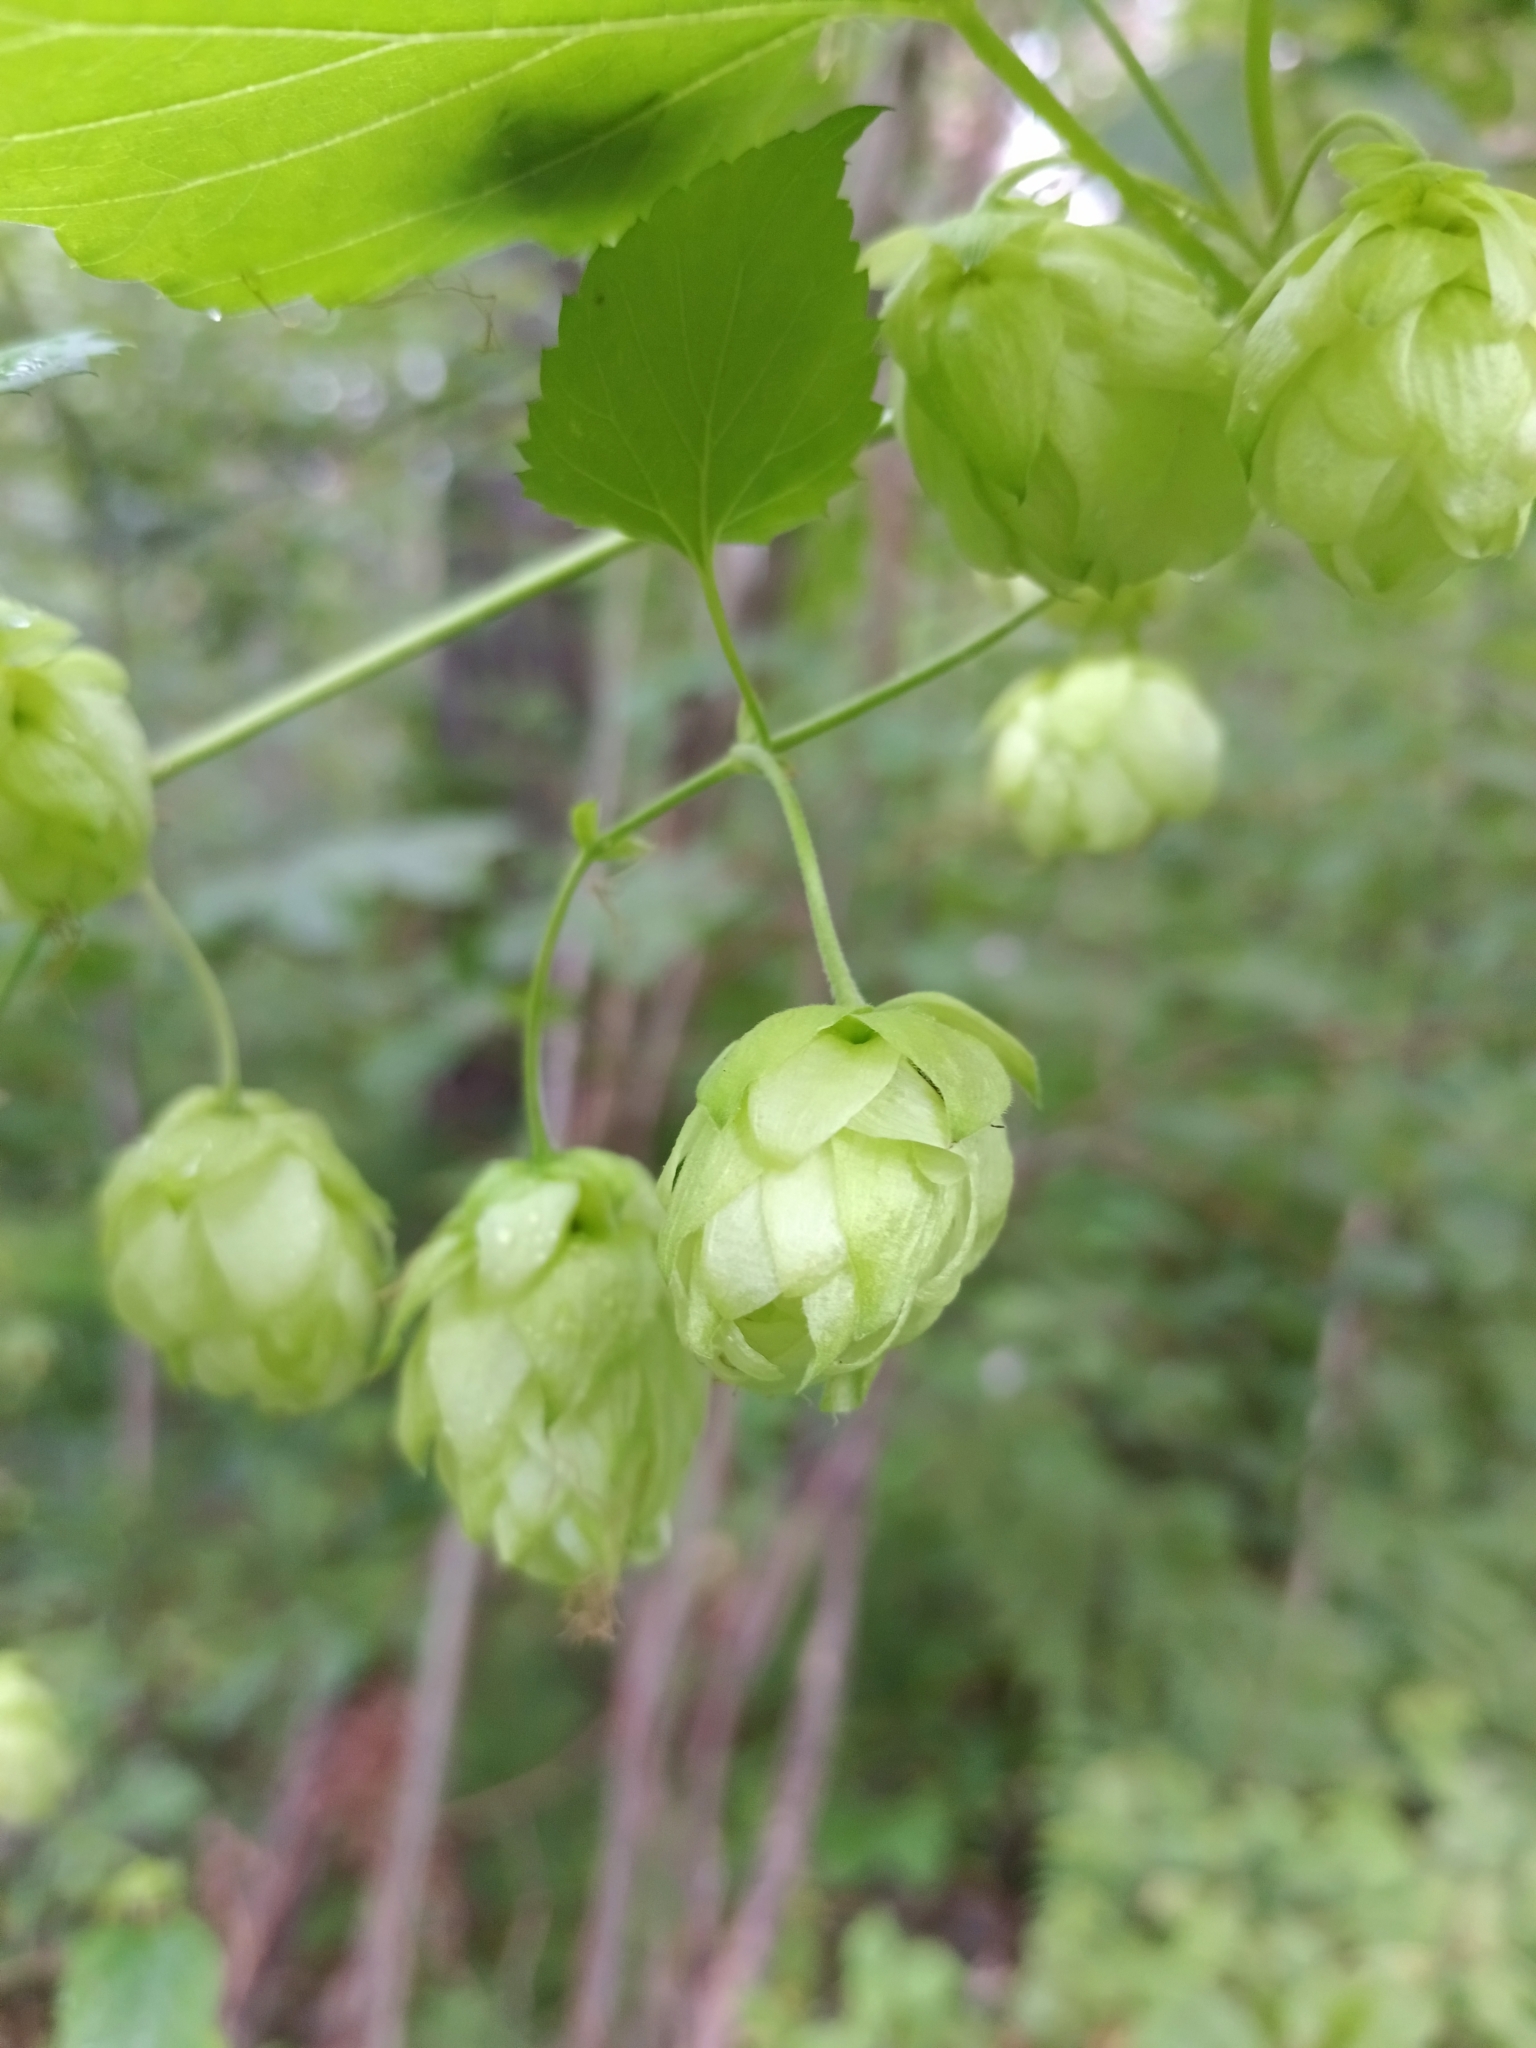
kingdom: Plantae
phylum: Tracheophyta
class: Magnoliopsida
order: Rosales
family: Cannabaceae
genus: Humulus
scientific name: Humulus lupulus
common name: Hop
